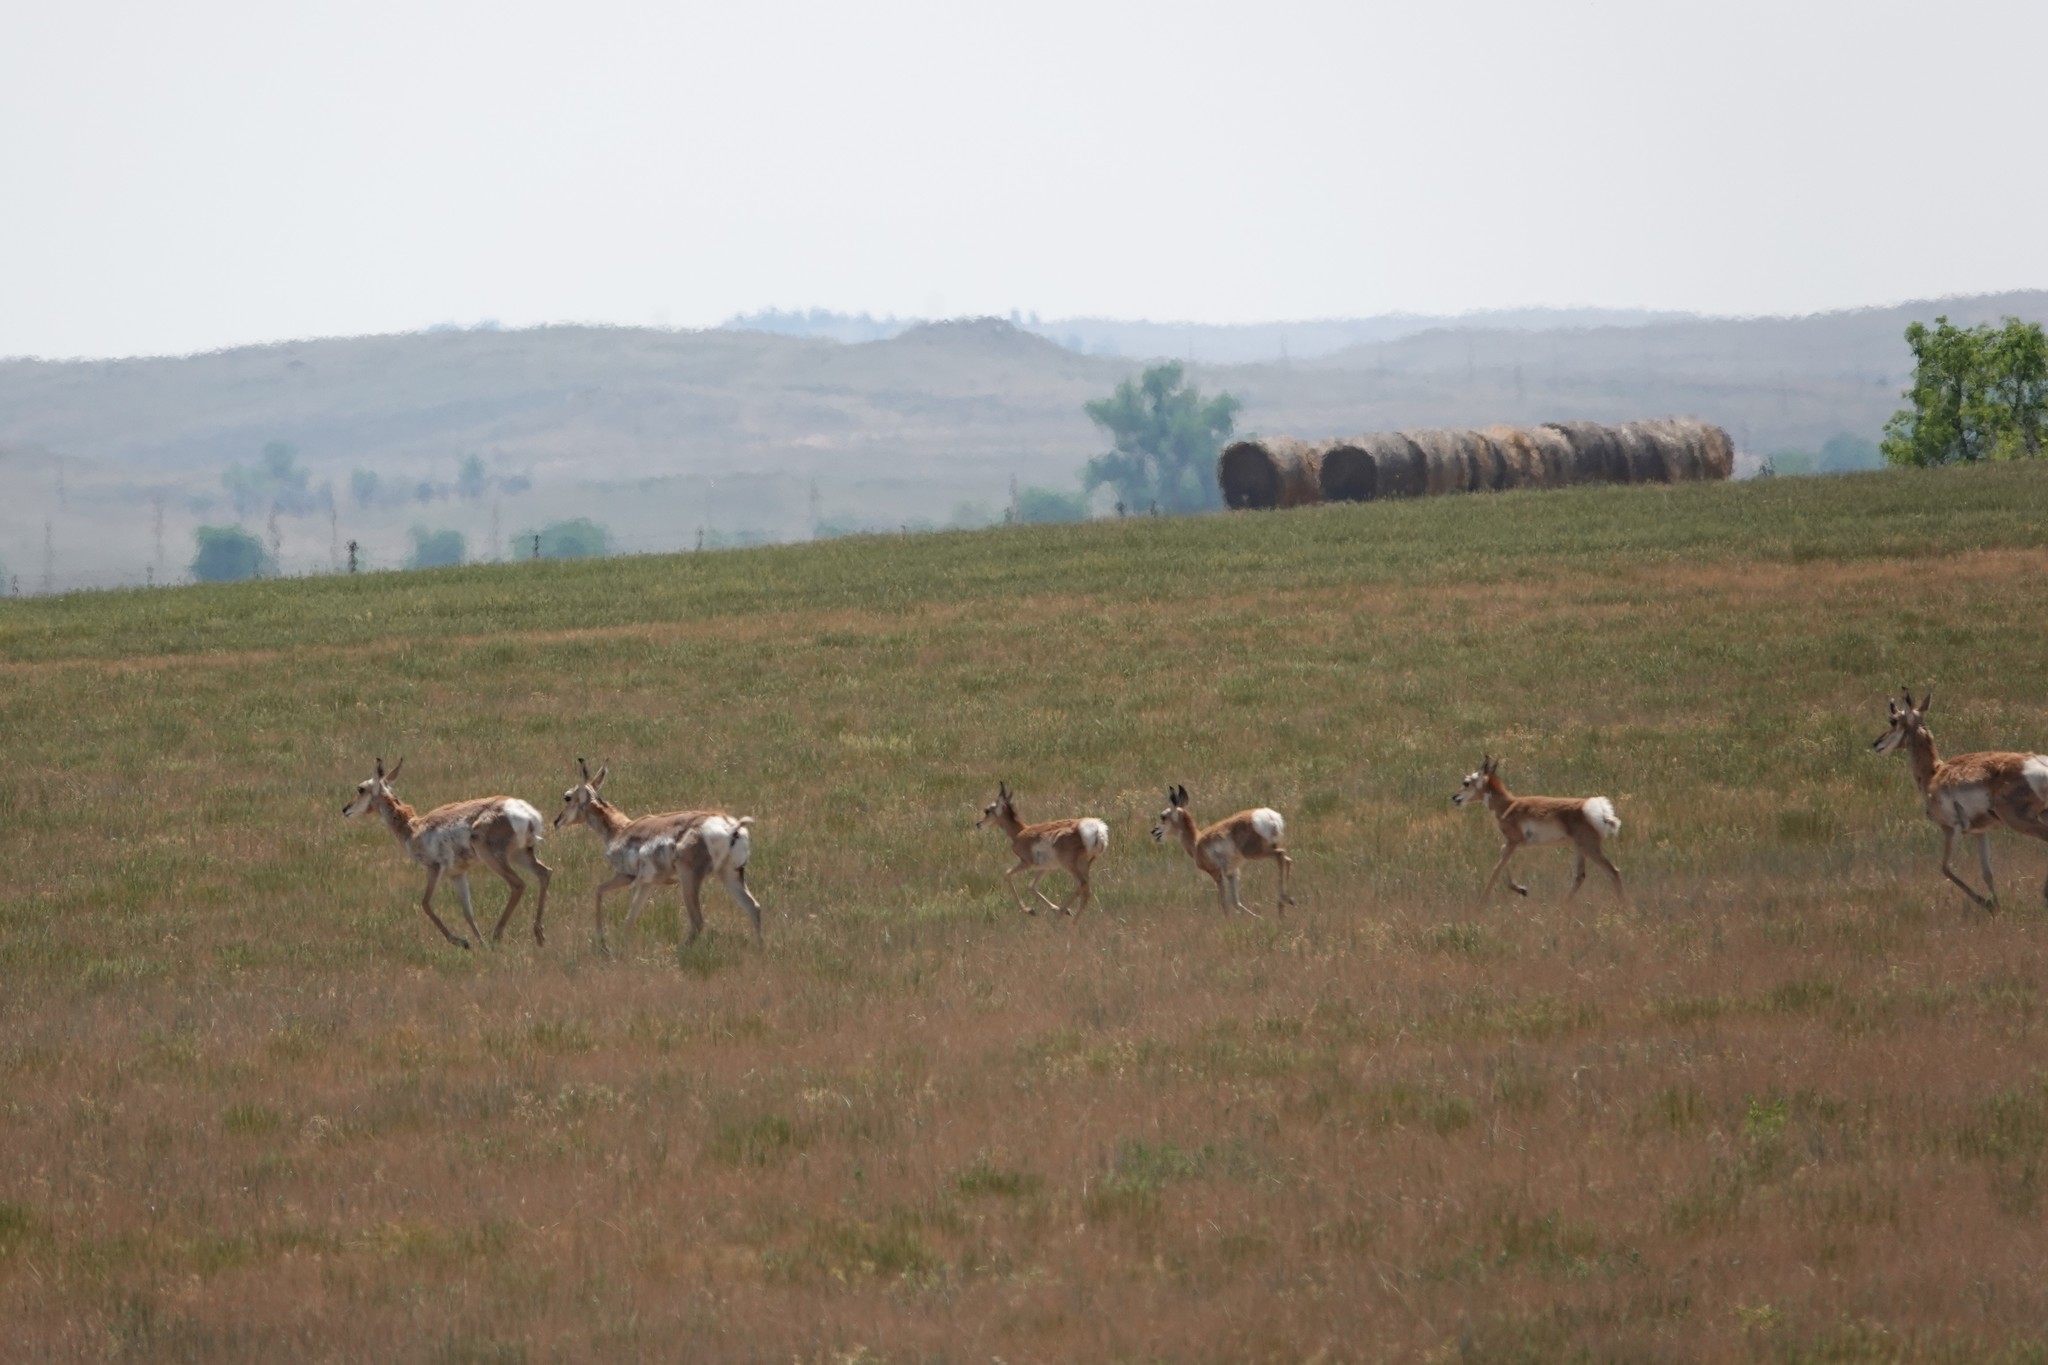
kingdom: Animalia
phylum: Chordata
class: Mammalia
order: Artiodactyla
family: Antilocapridae
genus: Antilocapra
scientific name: Antilocapra americana
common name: Pronghorn
